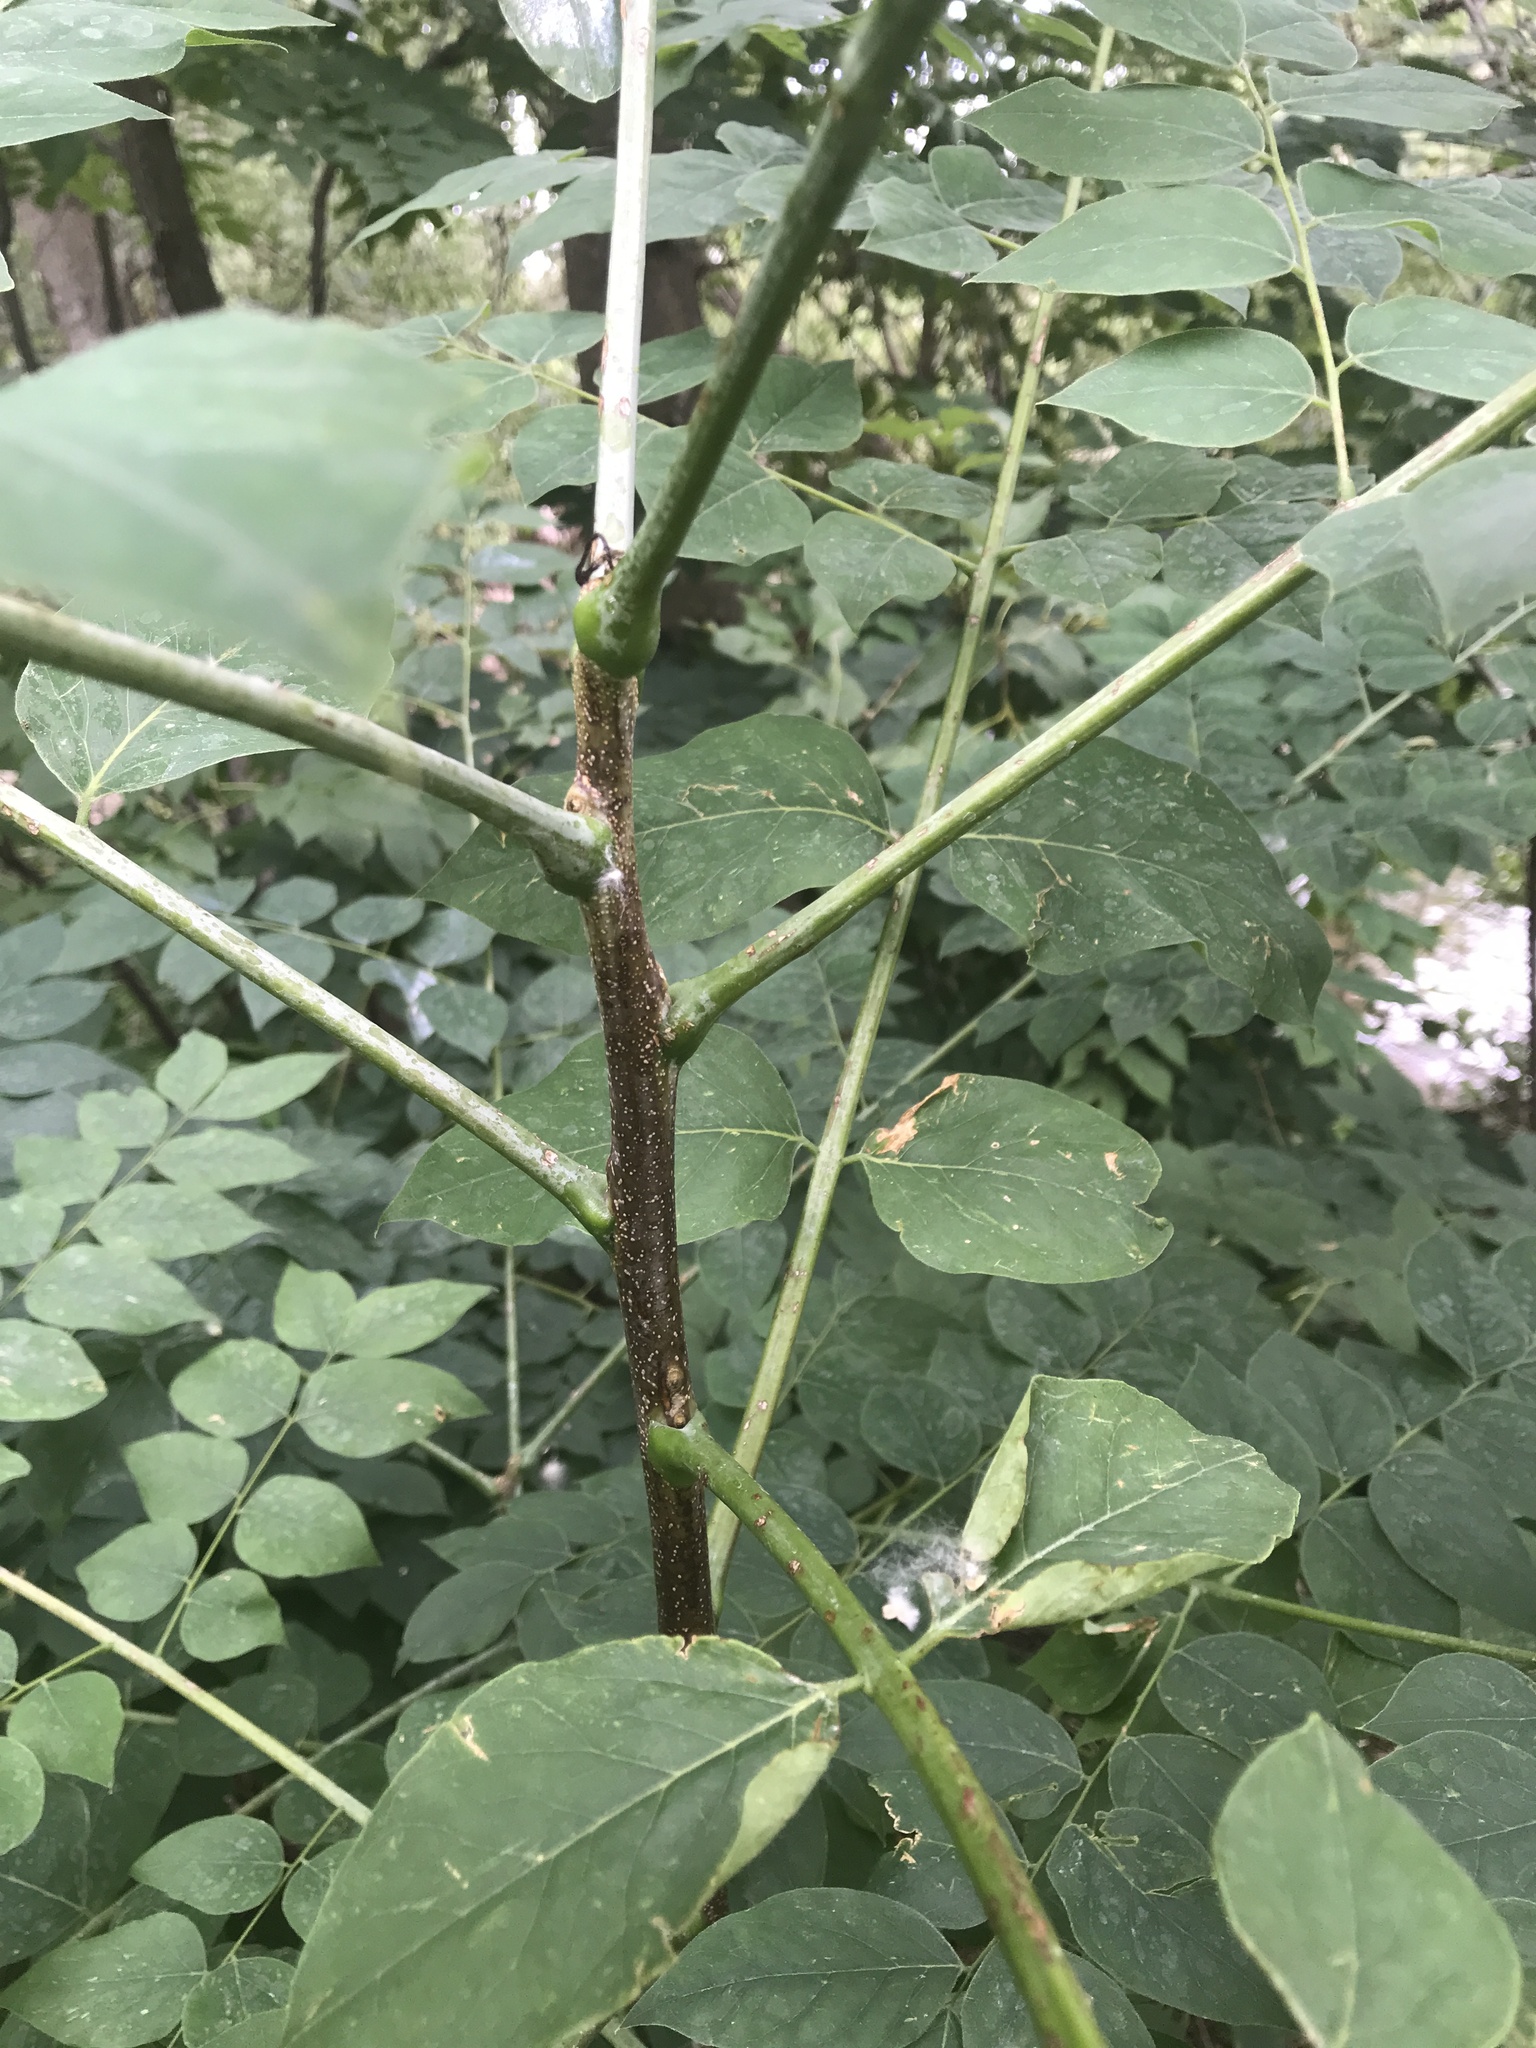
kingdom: Plantae
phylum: Tracheophyta
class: Magnoliopsida
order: Fabales
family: Fabaceae
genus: Gymnocladus
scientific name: Gymnocladus dioicus
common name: Kentucky coffee-tree
